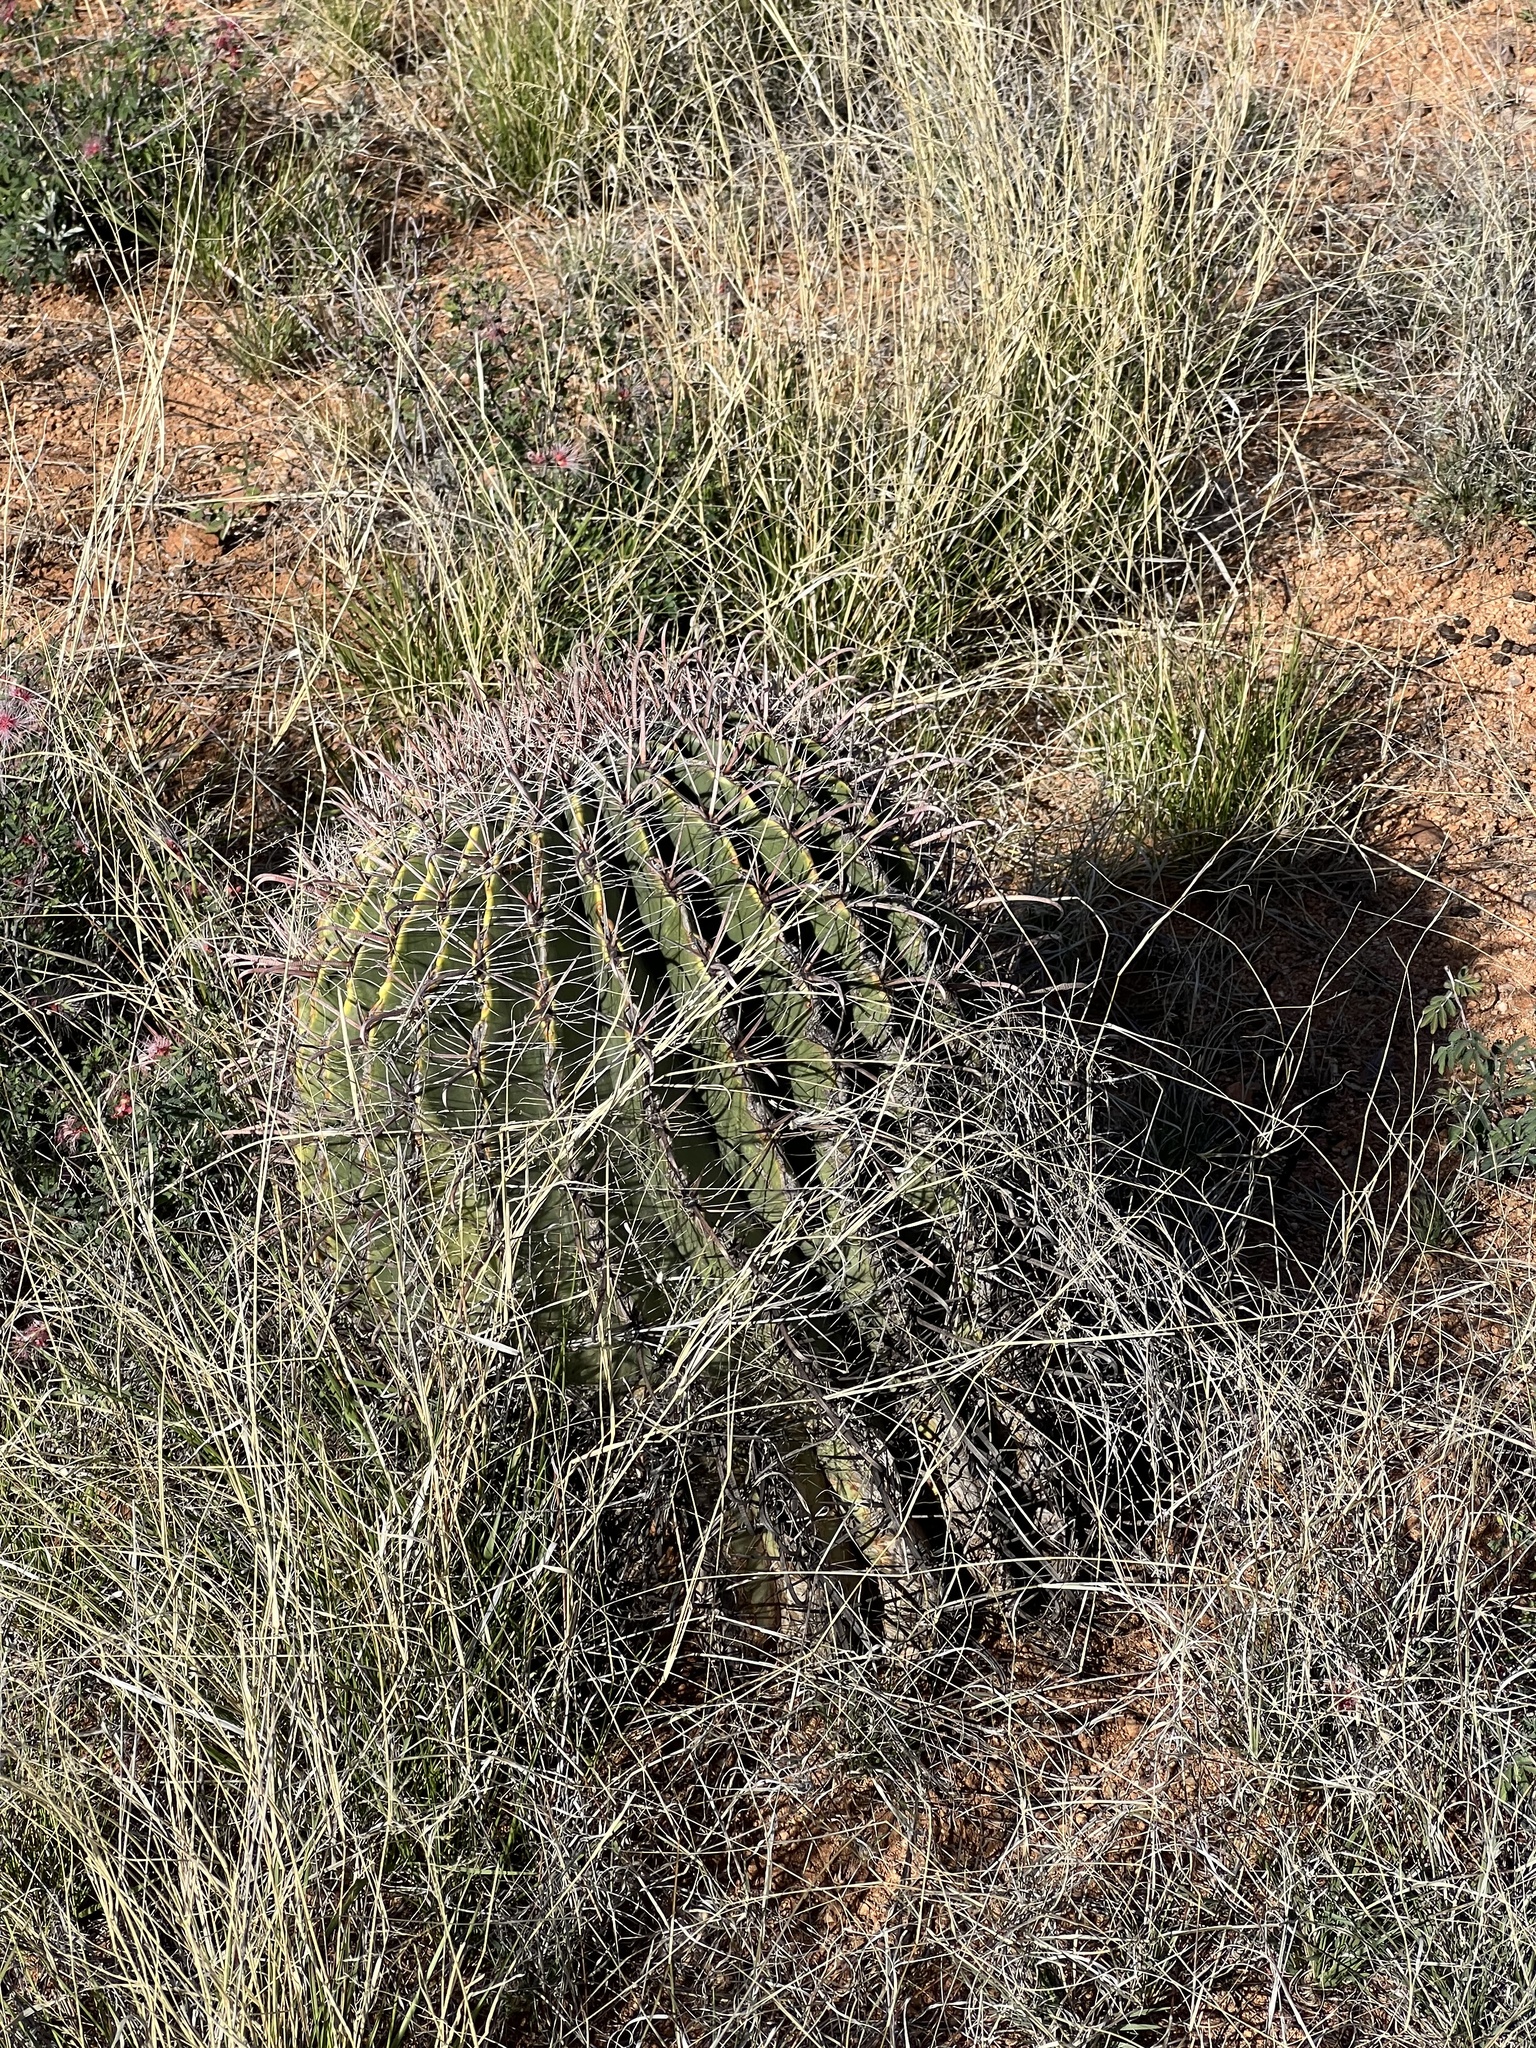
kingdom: Plantae
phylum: Tracheophyta
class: Magnoliopsida
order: Caryophyllales
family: Cactaceae
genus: Ferocactus
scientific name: Ferocactus wislizeni
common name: Candy barrel cactus
